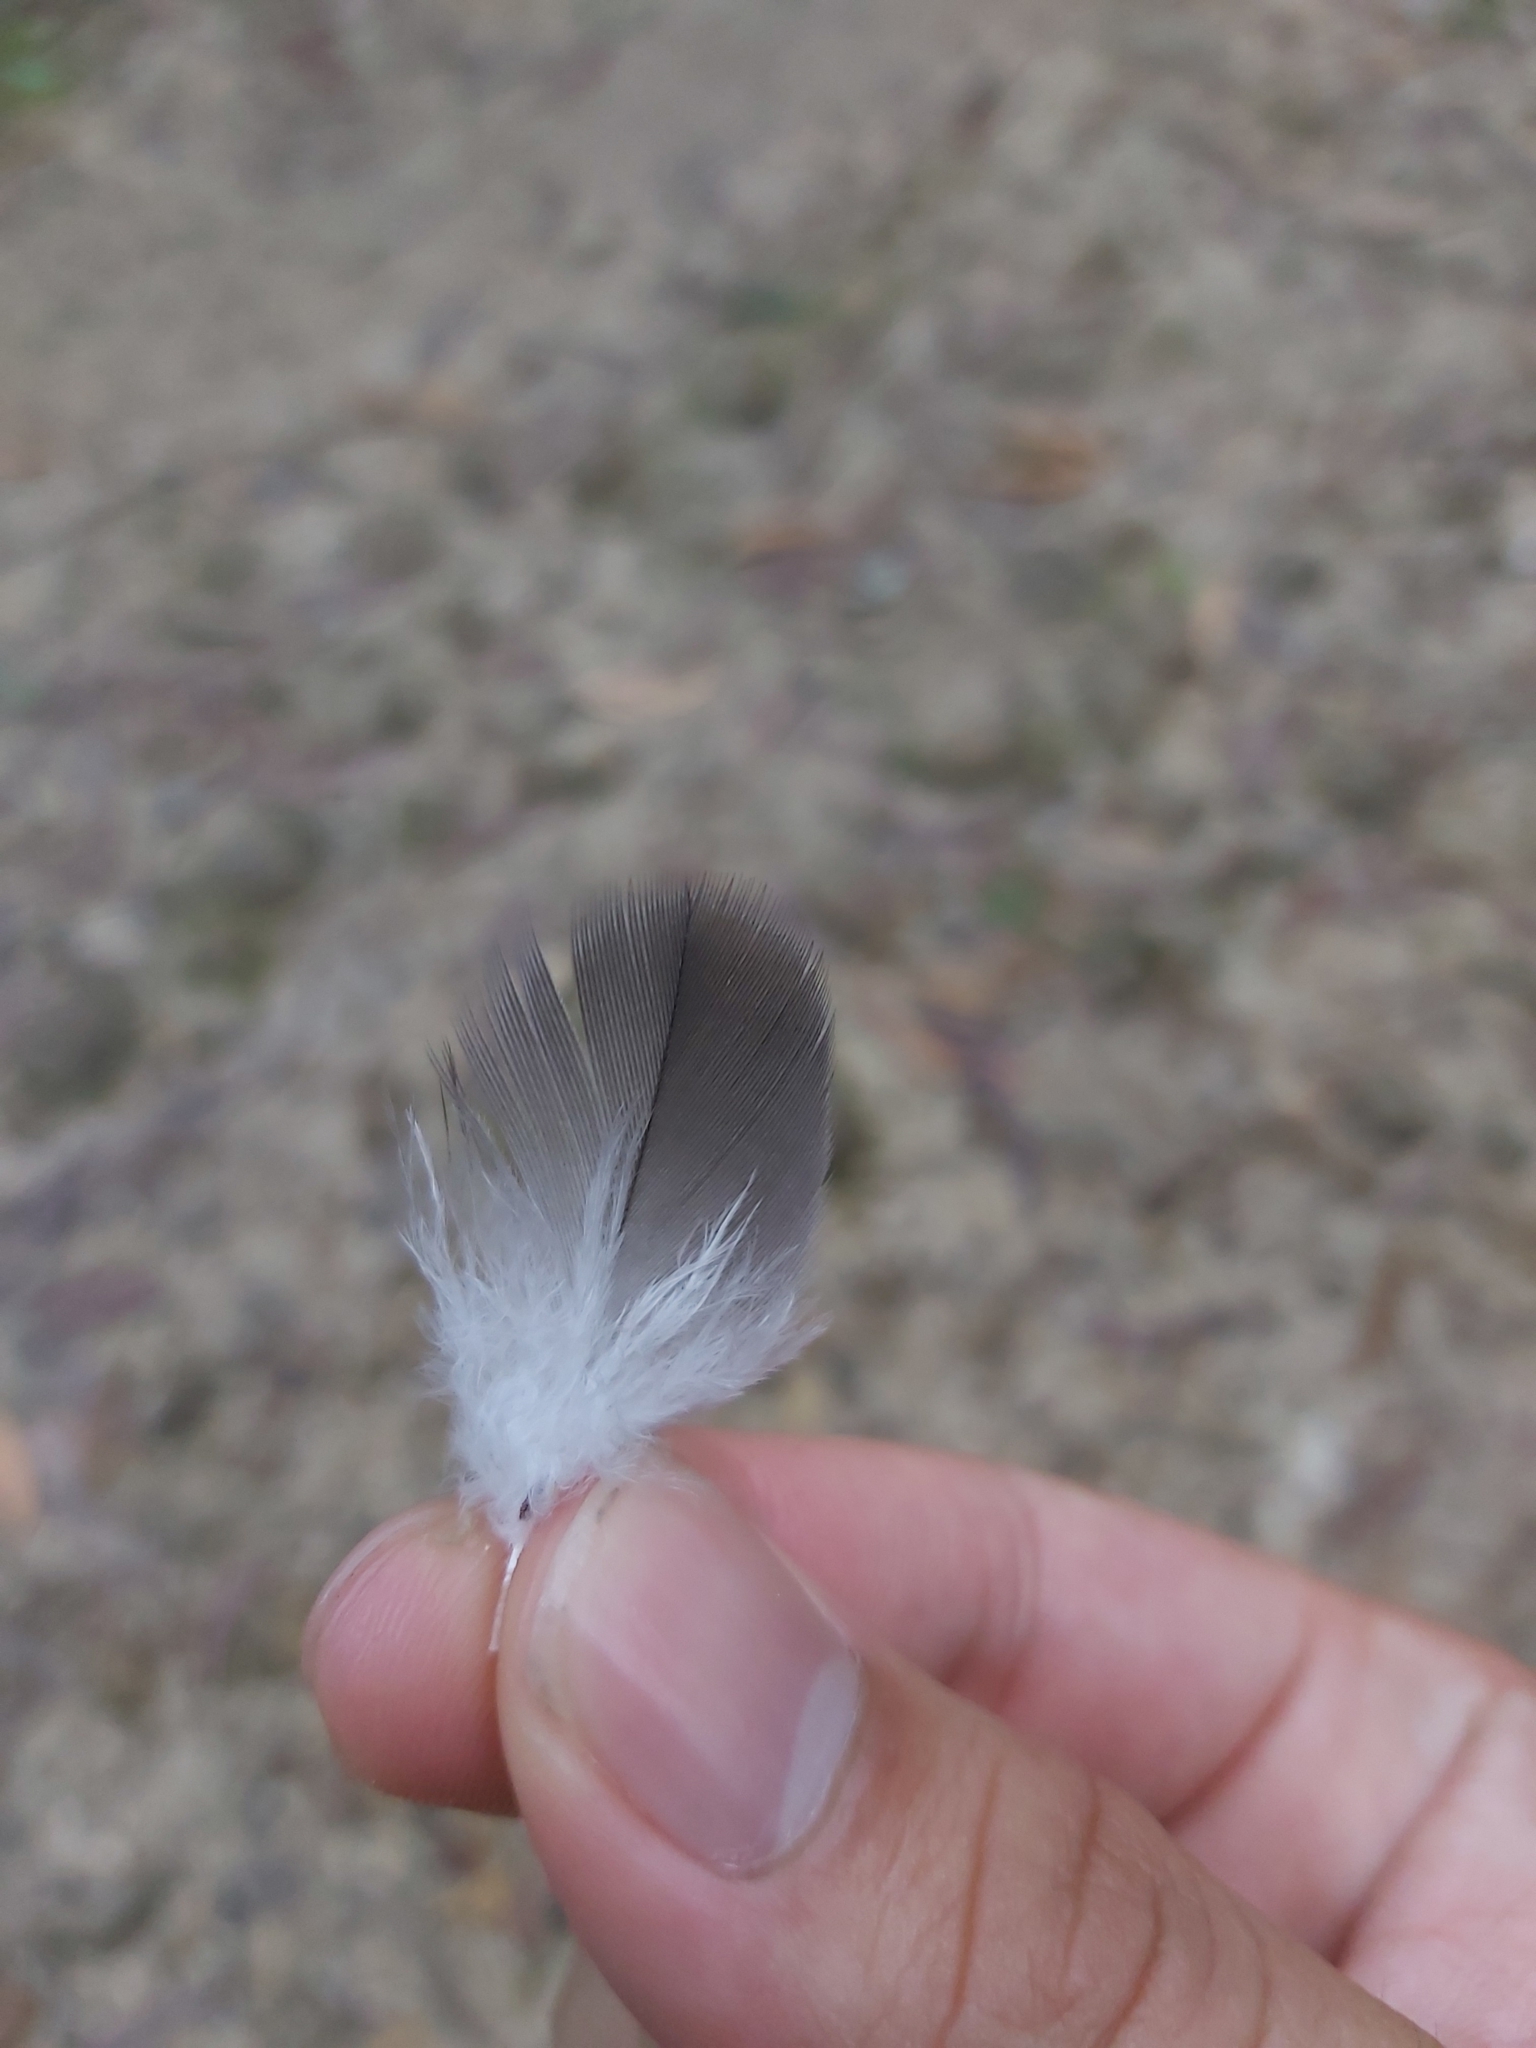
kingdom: Animalia
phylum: Chordata
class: Aves
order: Psittaciformes
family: Psittacidae
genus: Eolophus
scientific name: Eolophus roseicapilla
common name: Galah
